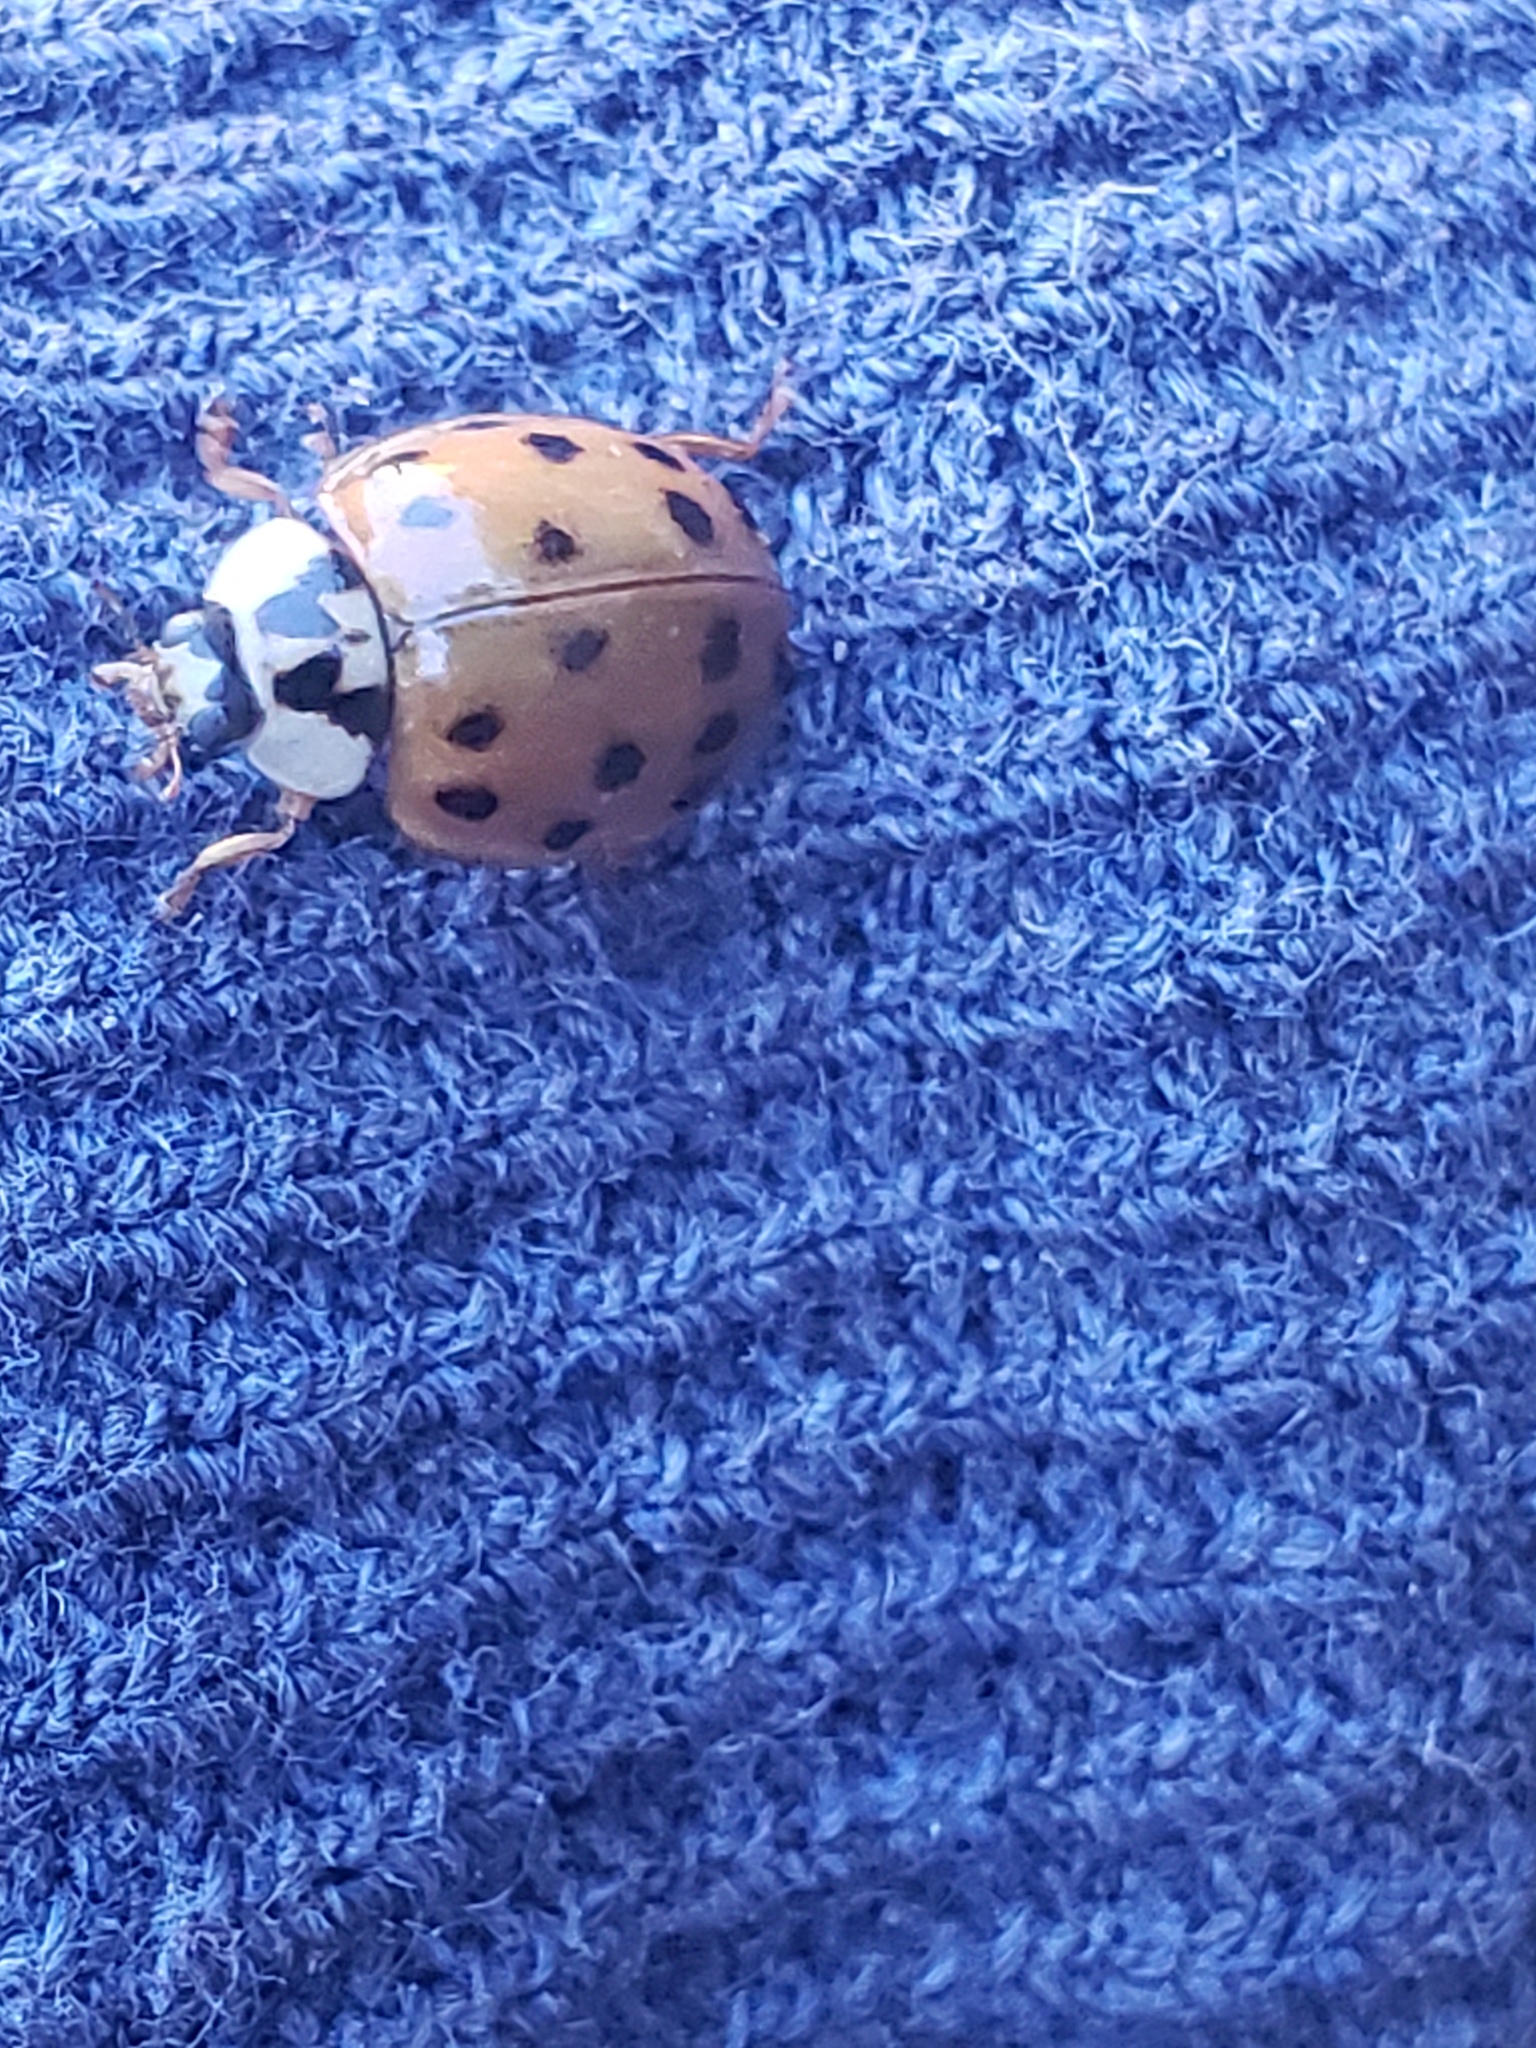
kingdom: Animalia
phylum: Arthropoda
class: Insecta
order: Coleoptera
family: Coccinellidae
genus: Harmonia
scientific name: Harmonia axyridis
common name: Harlequin ladybird
